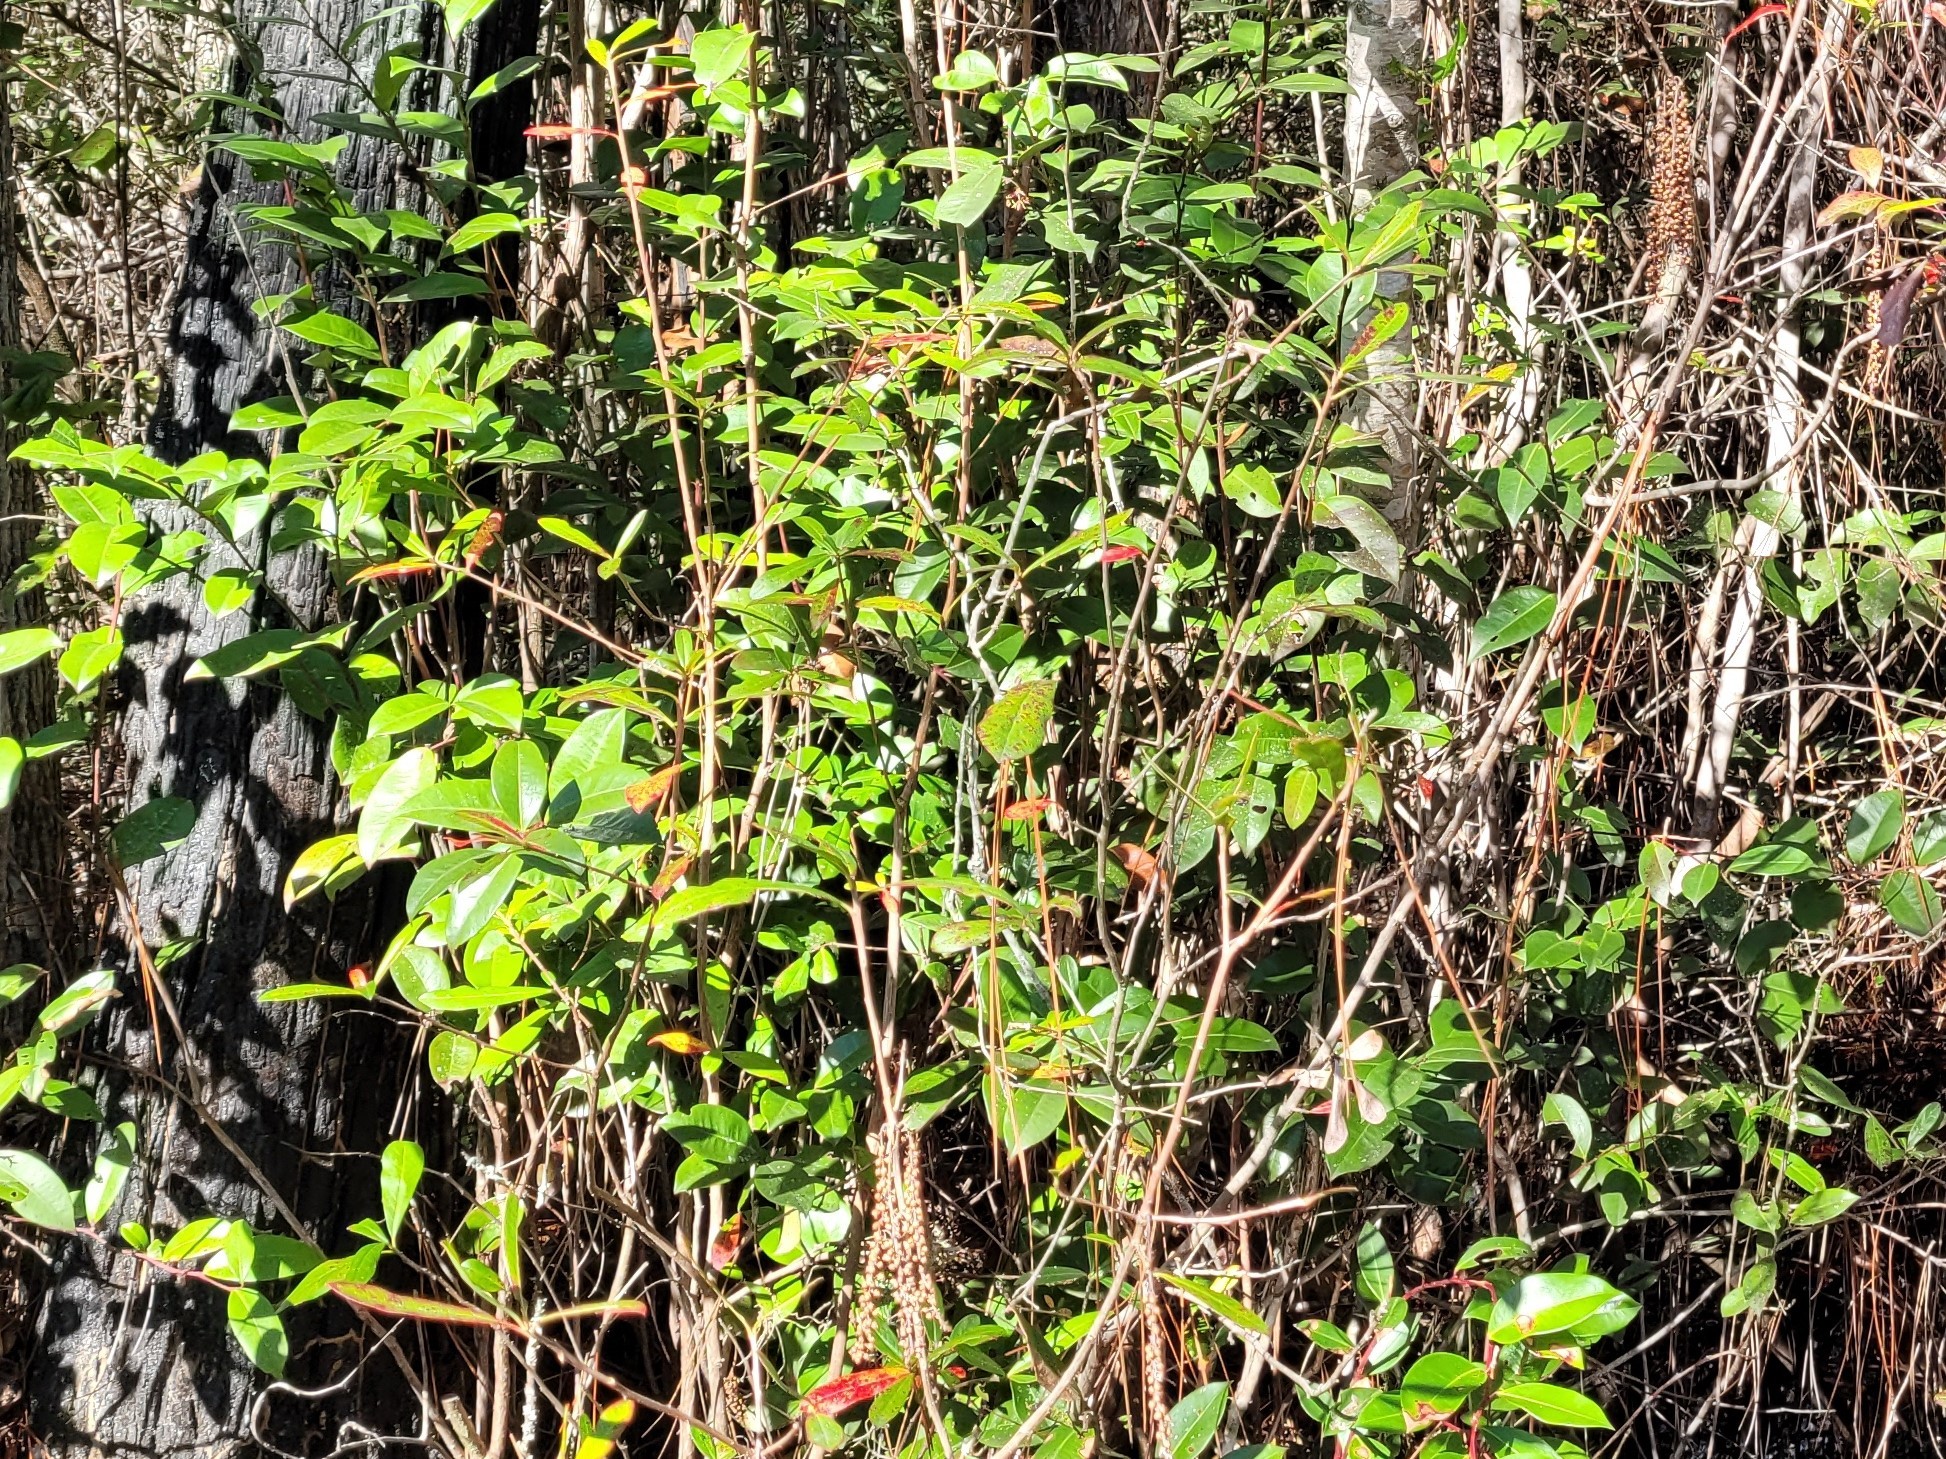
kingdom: Plantae
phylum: Tracheophyta
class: Magnoliopsida
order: Ericales
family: Cyrillaceae
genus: Cyrilla
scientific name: Cyrilla racemiflora
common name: Black titi
